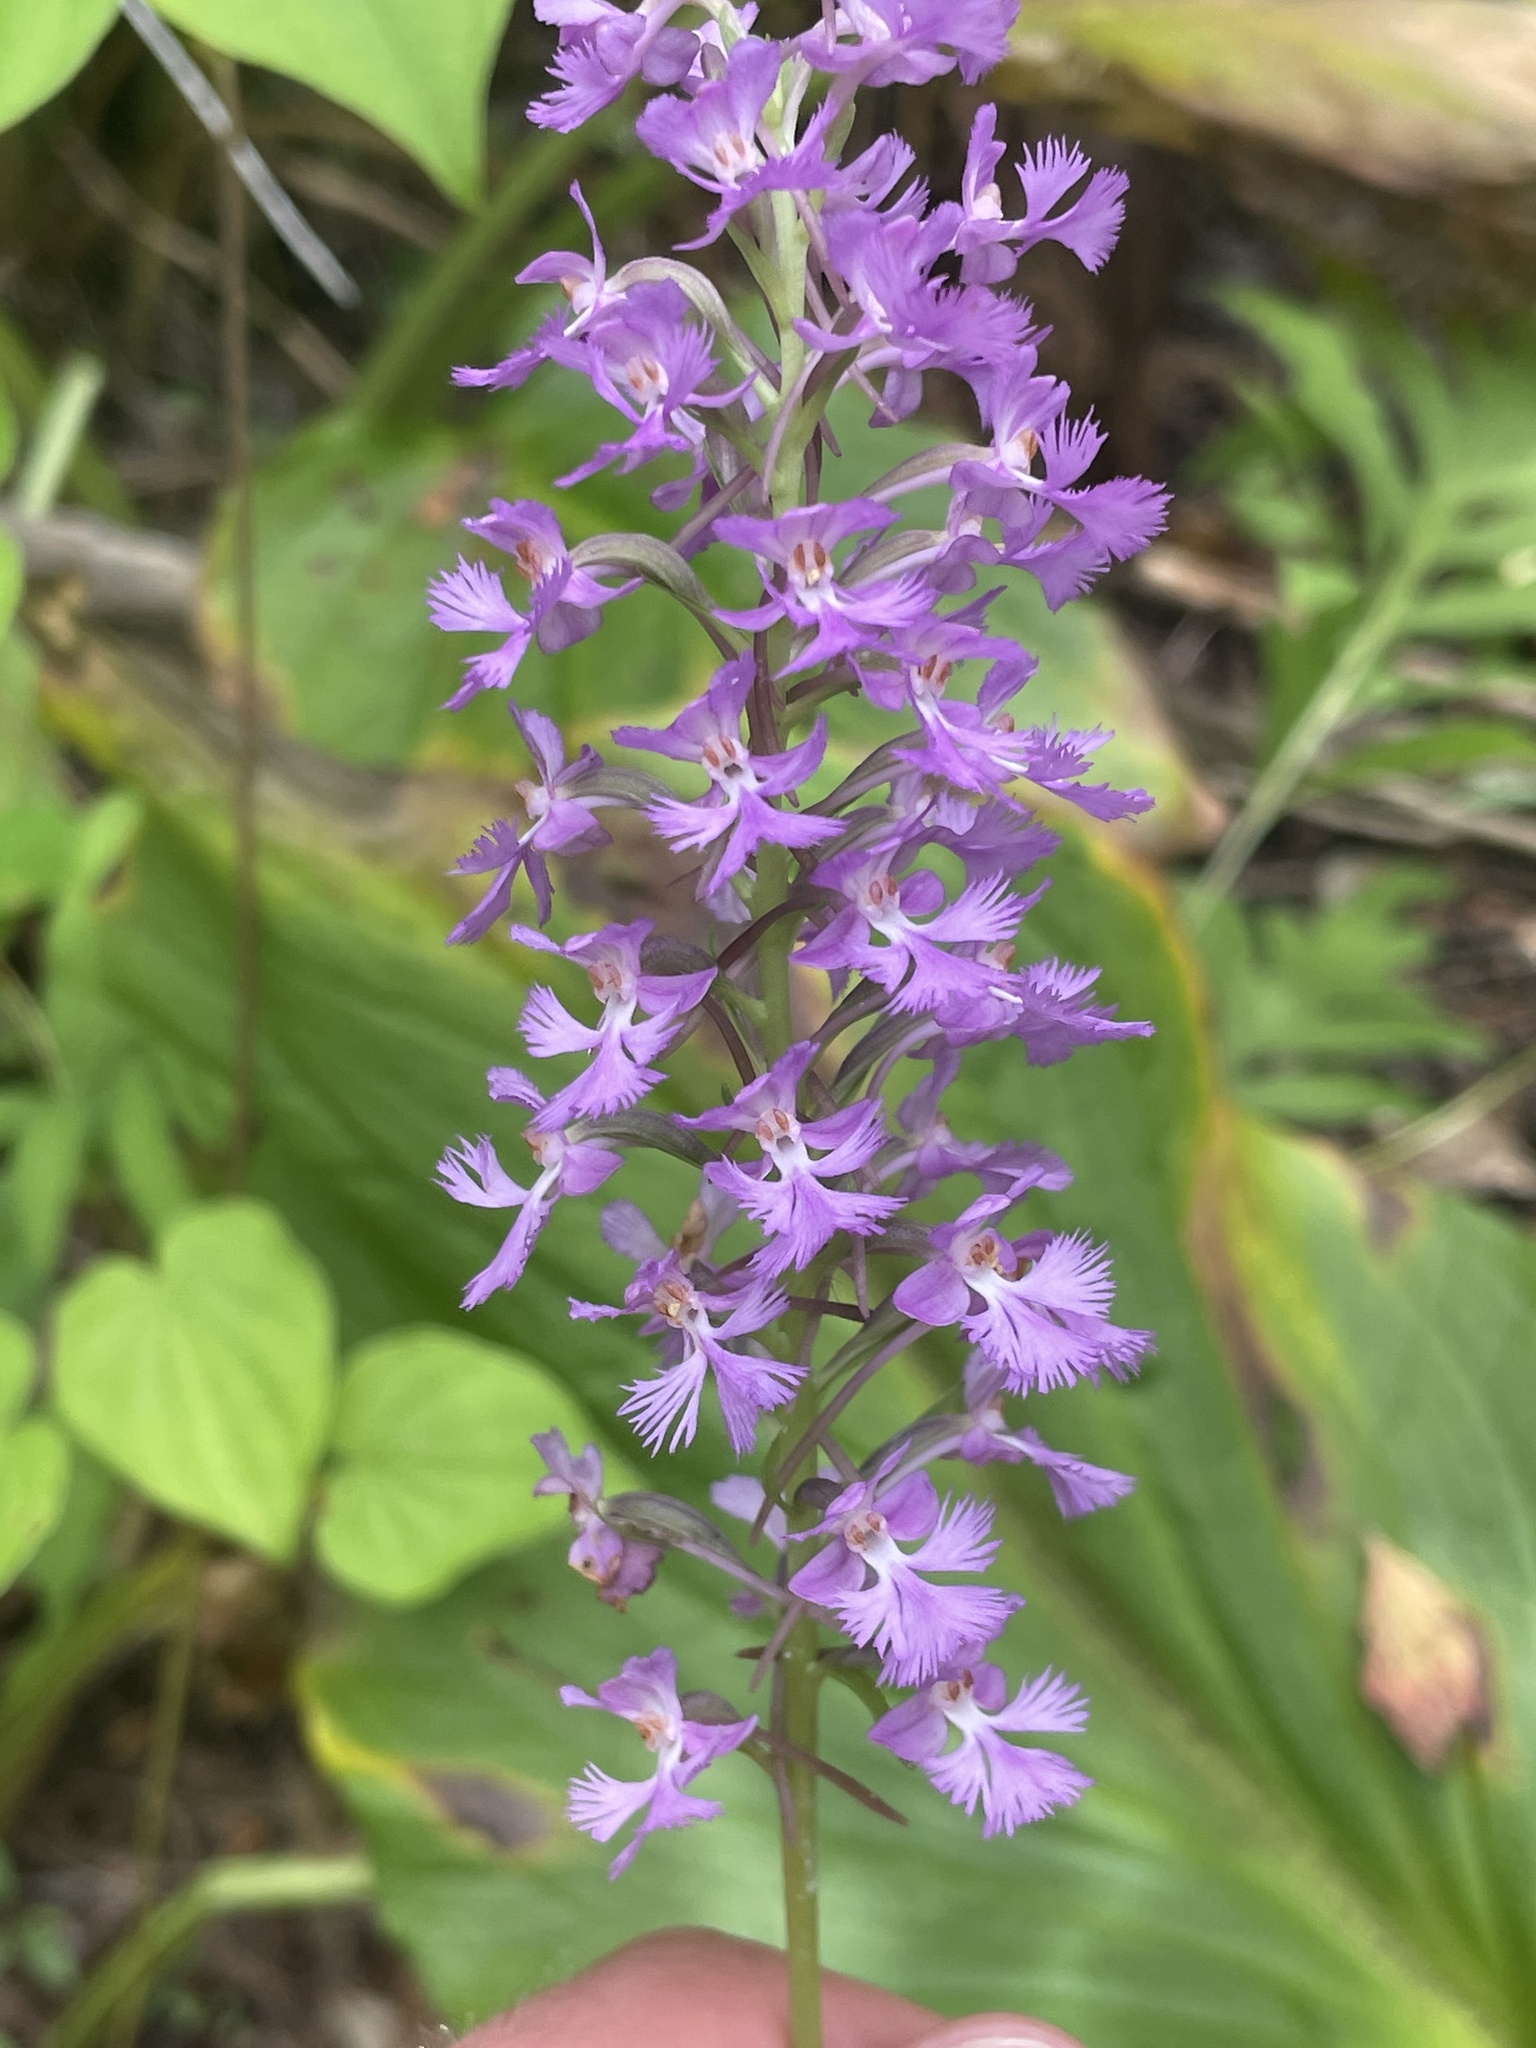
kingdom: Plantae
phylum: Tracheophyta
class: Liliopsida
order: Asparagales
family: Orchidaceae
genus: Platanthera
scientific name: Platanthera psycodes
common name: Lesser purple fringed orchid
